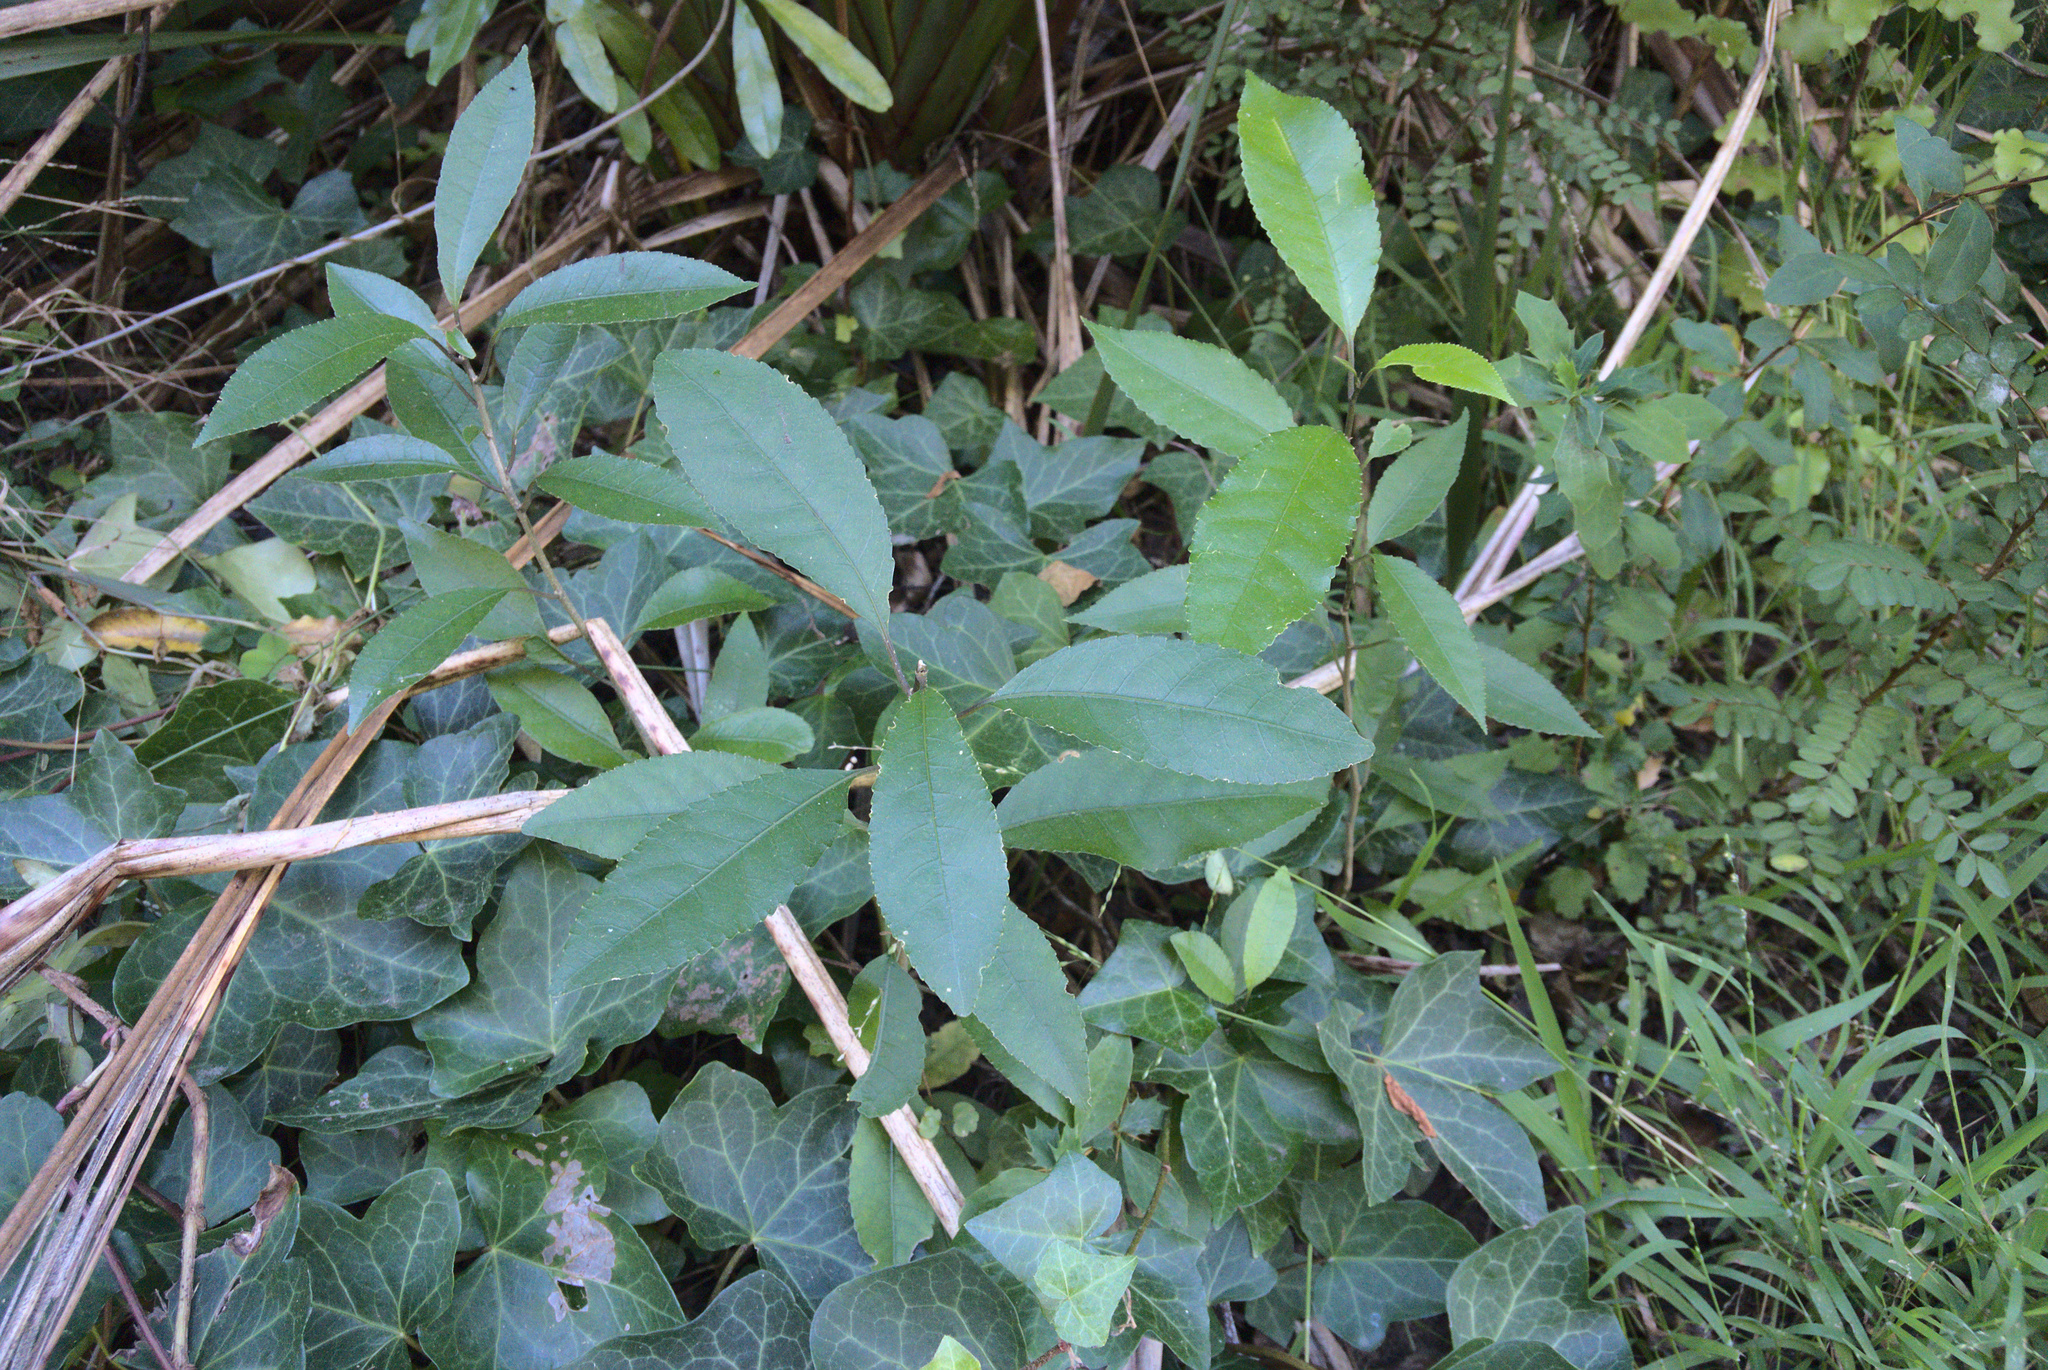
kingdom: Plantae
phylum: Tracheophyta
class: Magnoliopsida
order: Malpighiales
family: Violaceae
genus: Melicytus
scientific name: Melicytus ramiflorus
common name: Mahoe
